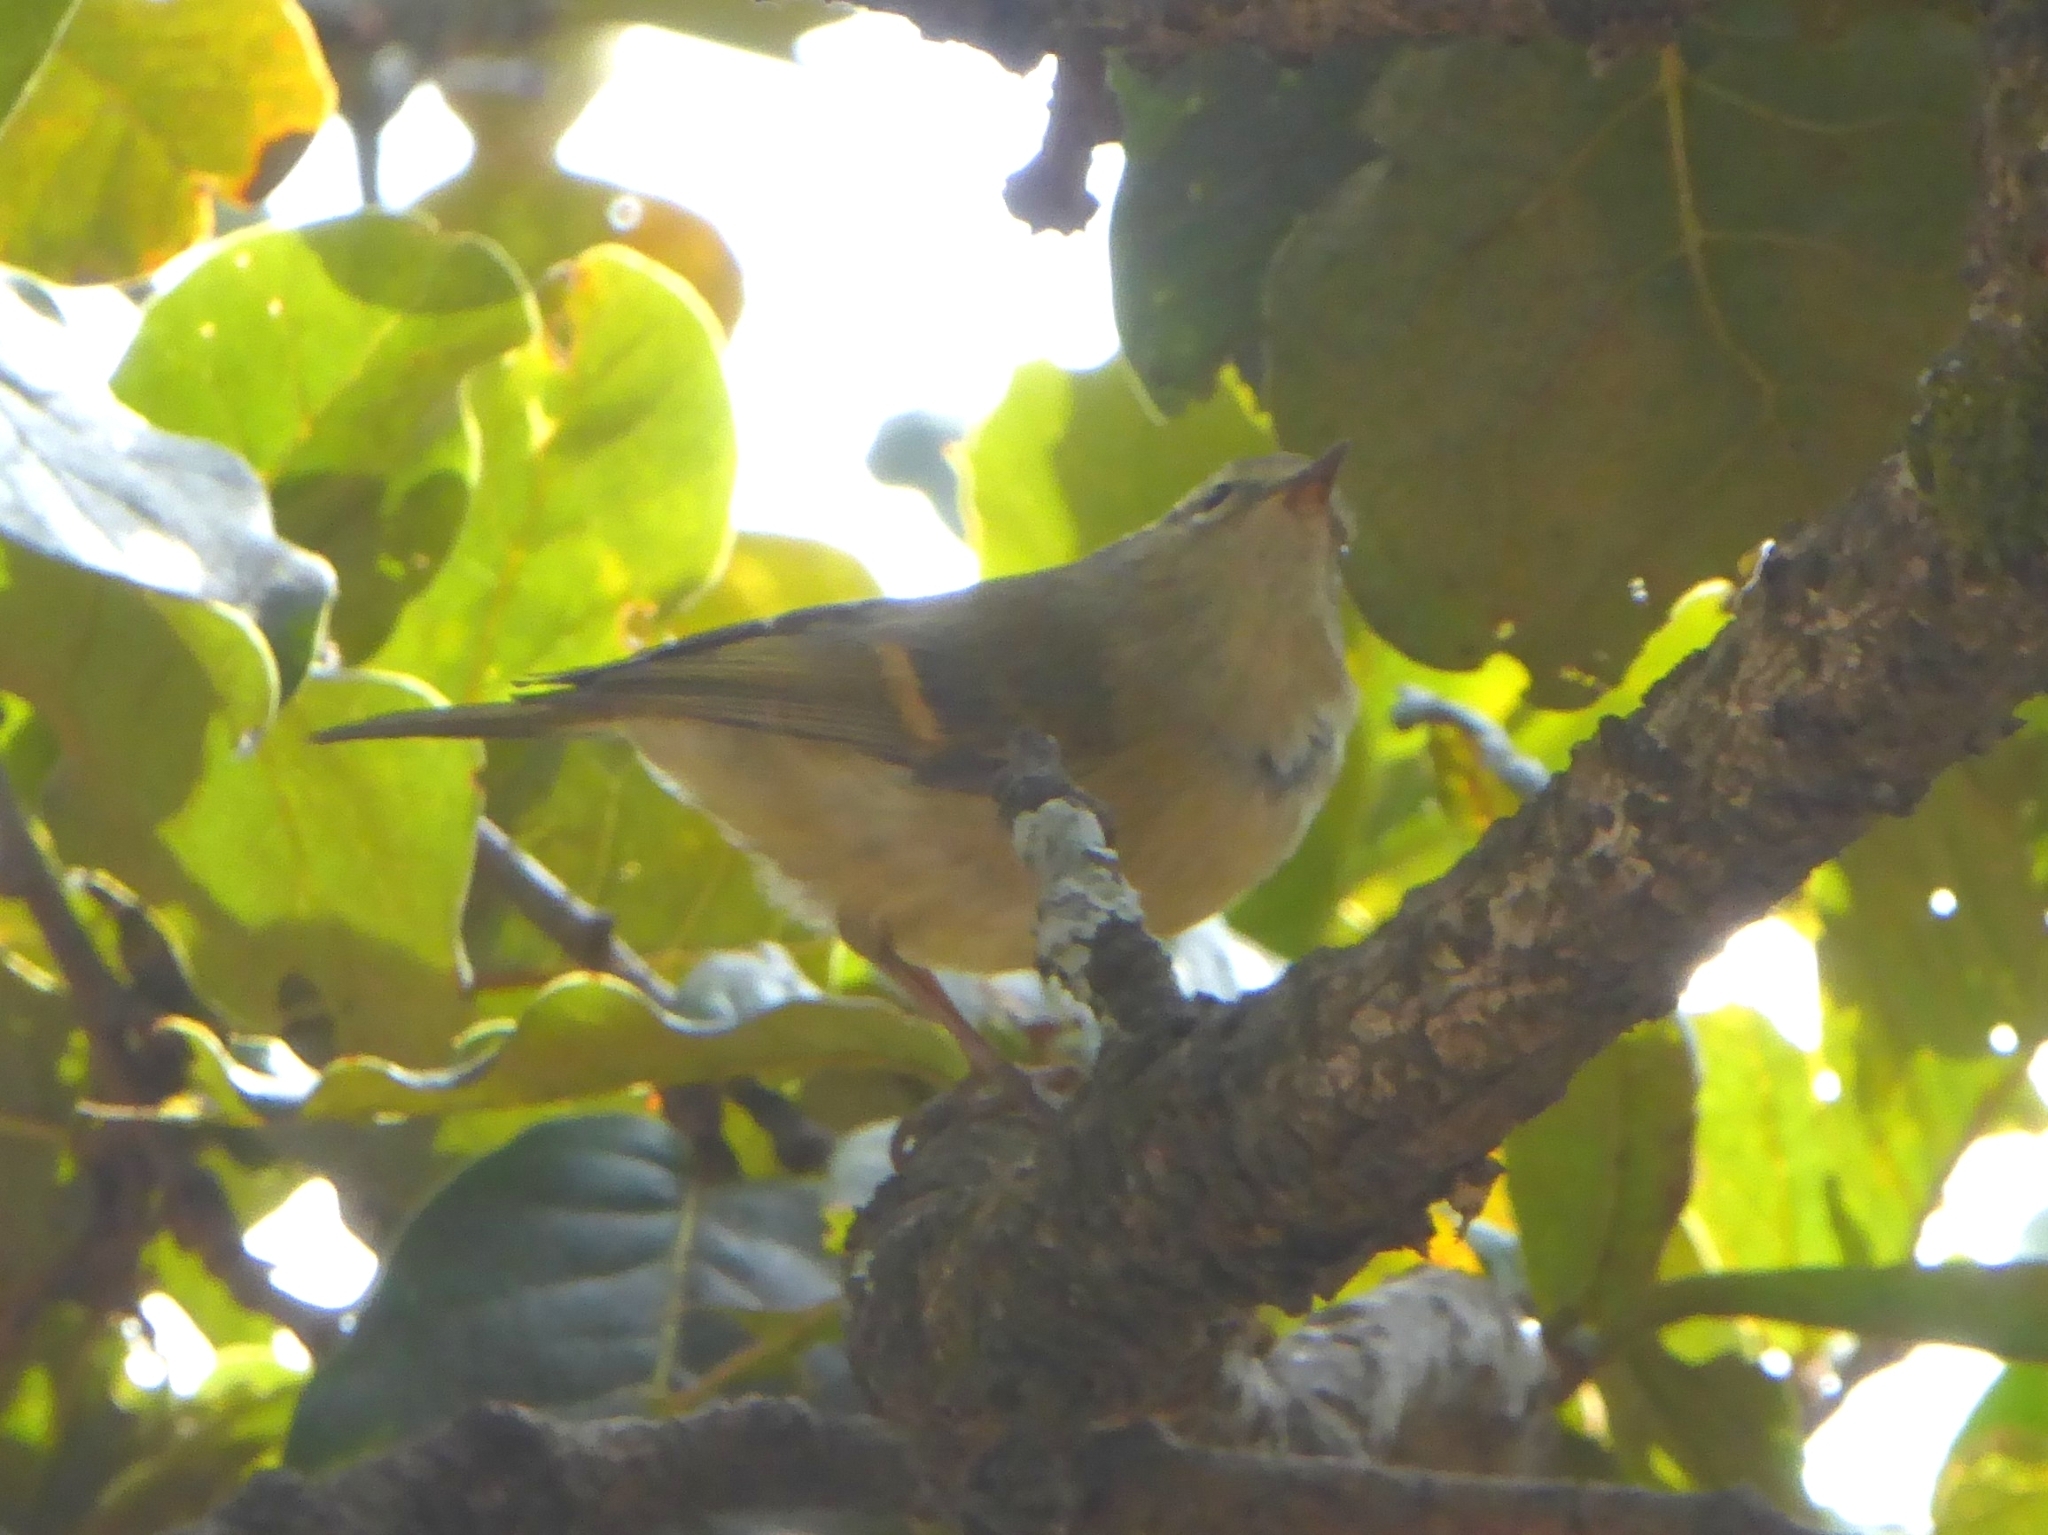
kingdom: Animalia
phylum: Chordata
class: Aves
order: Passeriformes
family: Phylloscopidae
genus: Phylloscopus
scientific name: Phylloscopus pulcher
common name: Buff-barred warbler
